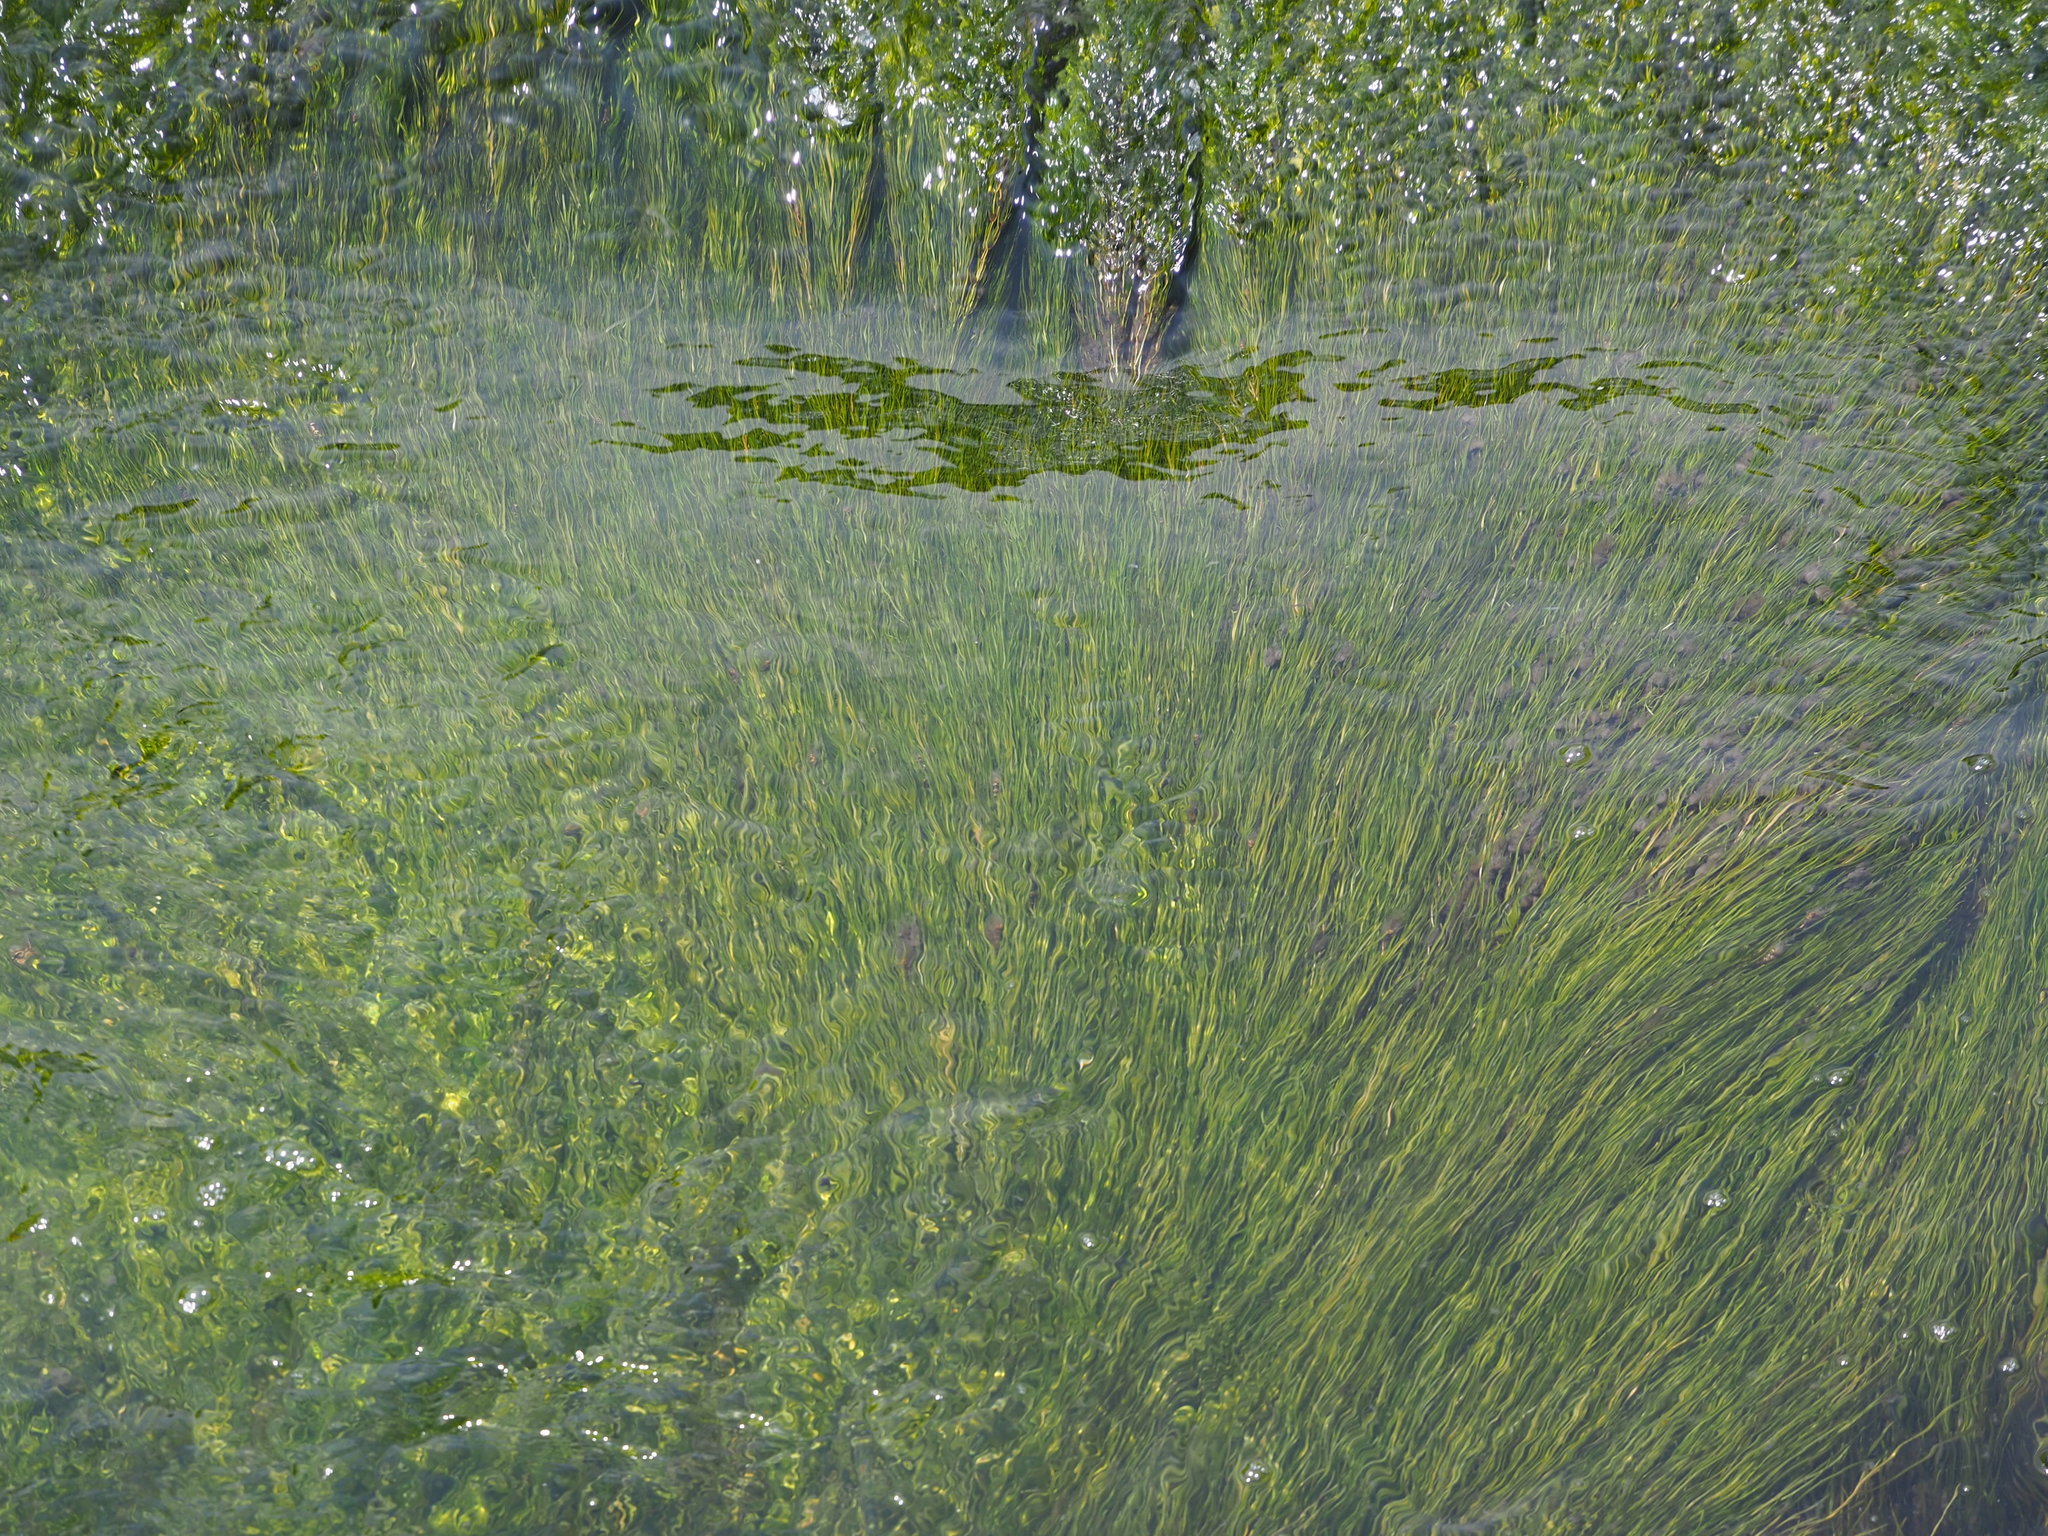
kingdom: Plantae
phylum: Tracheophyta
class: Liliopsida
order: Alismatales
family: Potamogetonaceae
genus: Stuckenia
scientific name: Stuckenia pectinata
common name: Sago pondweed
